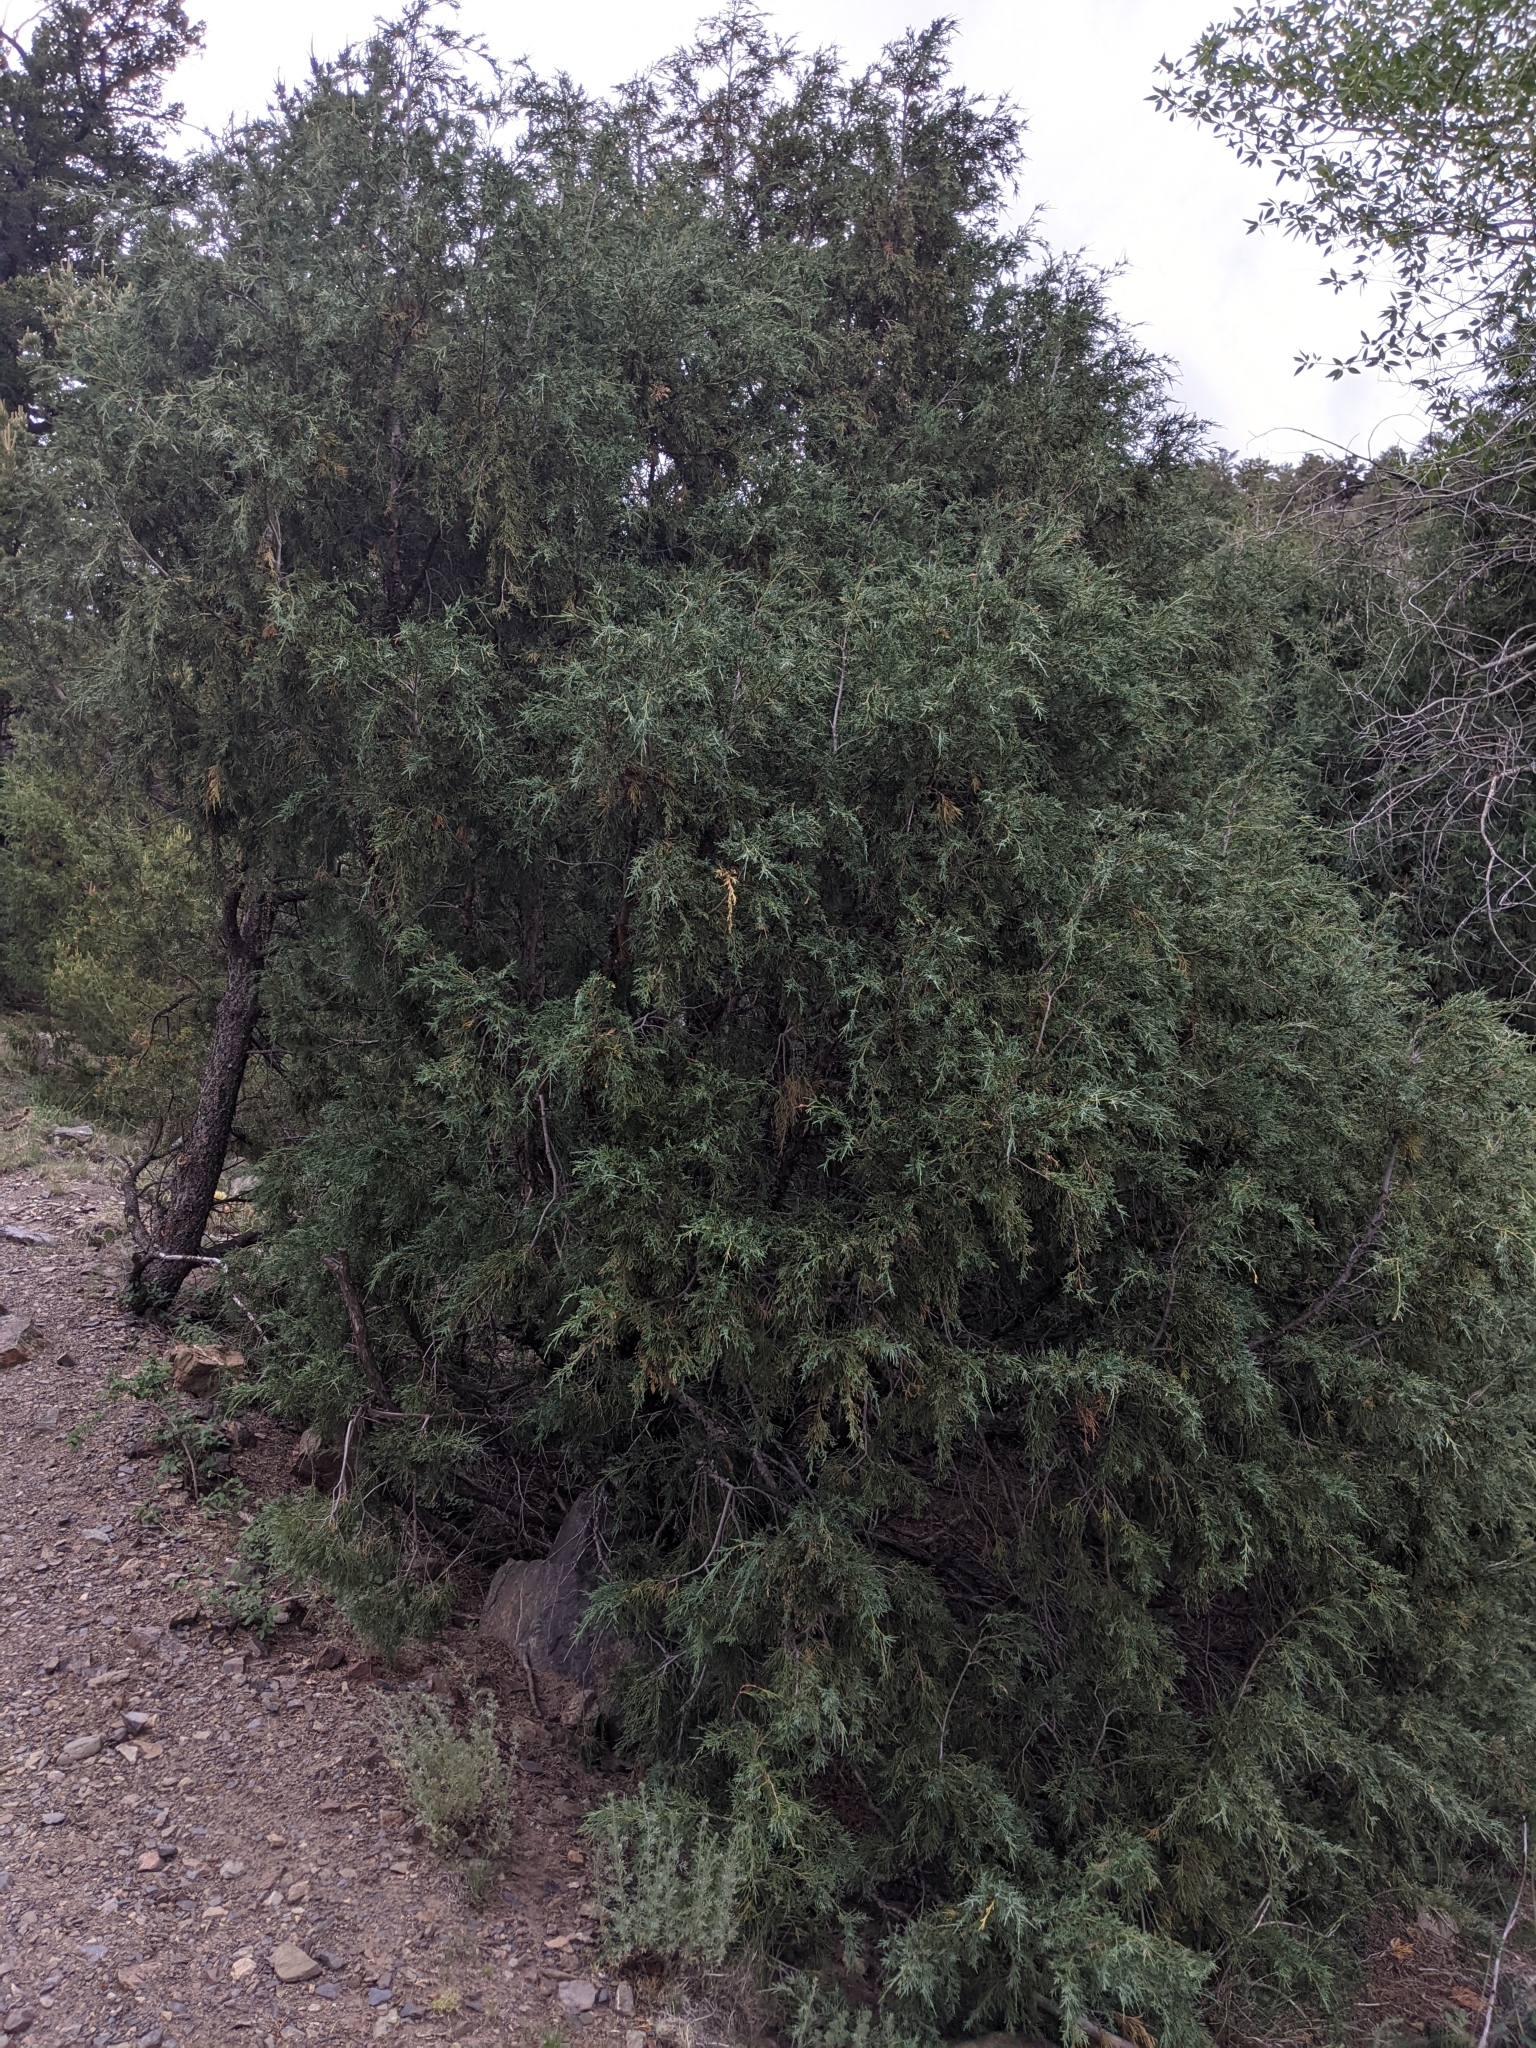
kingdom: Plantae
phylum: Tracheophyta
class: Pinopsida
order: Pinales
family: Cupressaceae
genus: Juniperus
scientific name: Juniperus scopulorum
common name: Rocky mountain juniper
